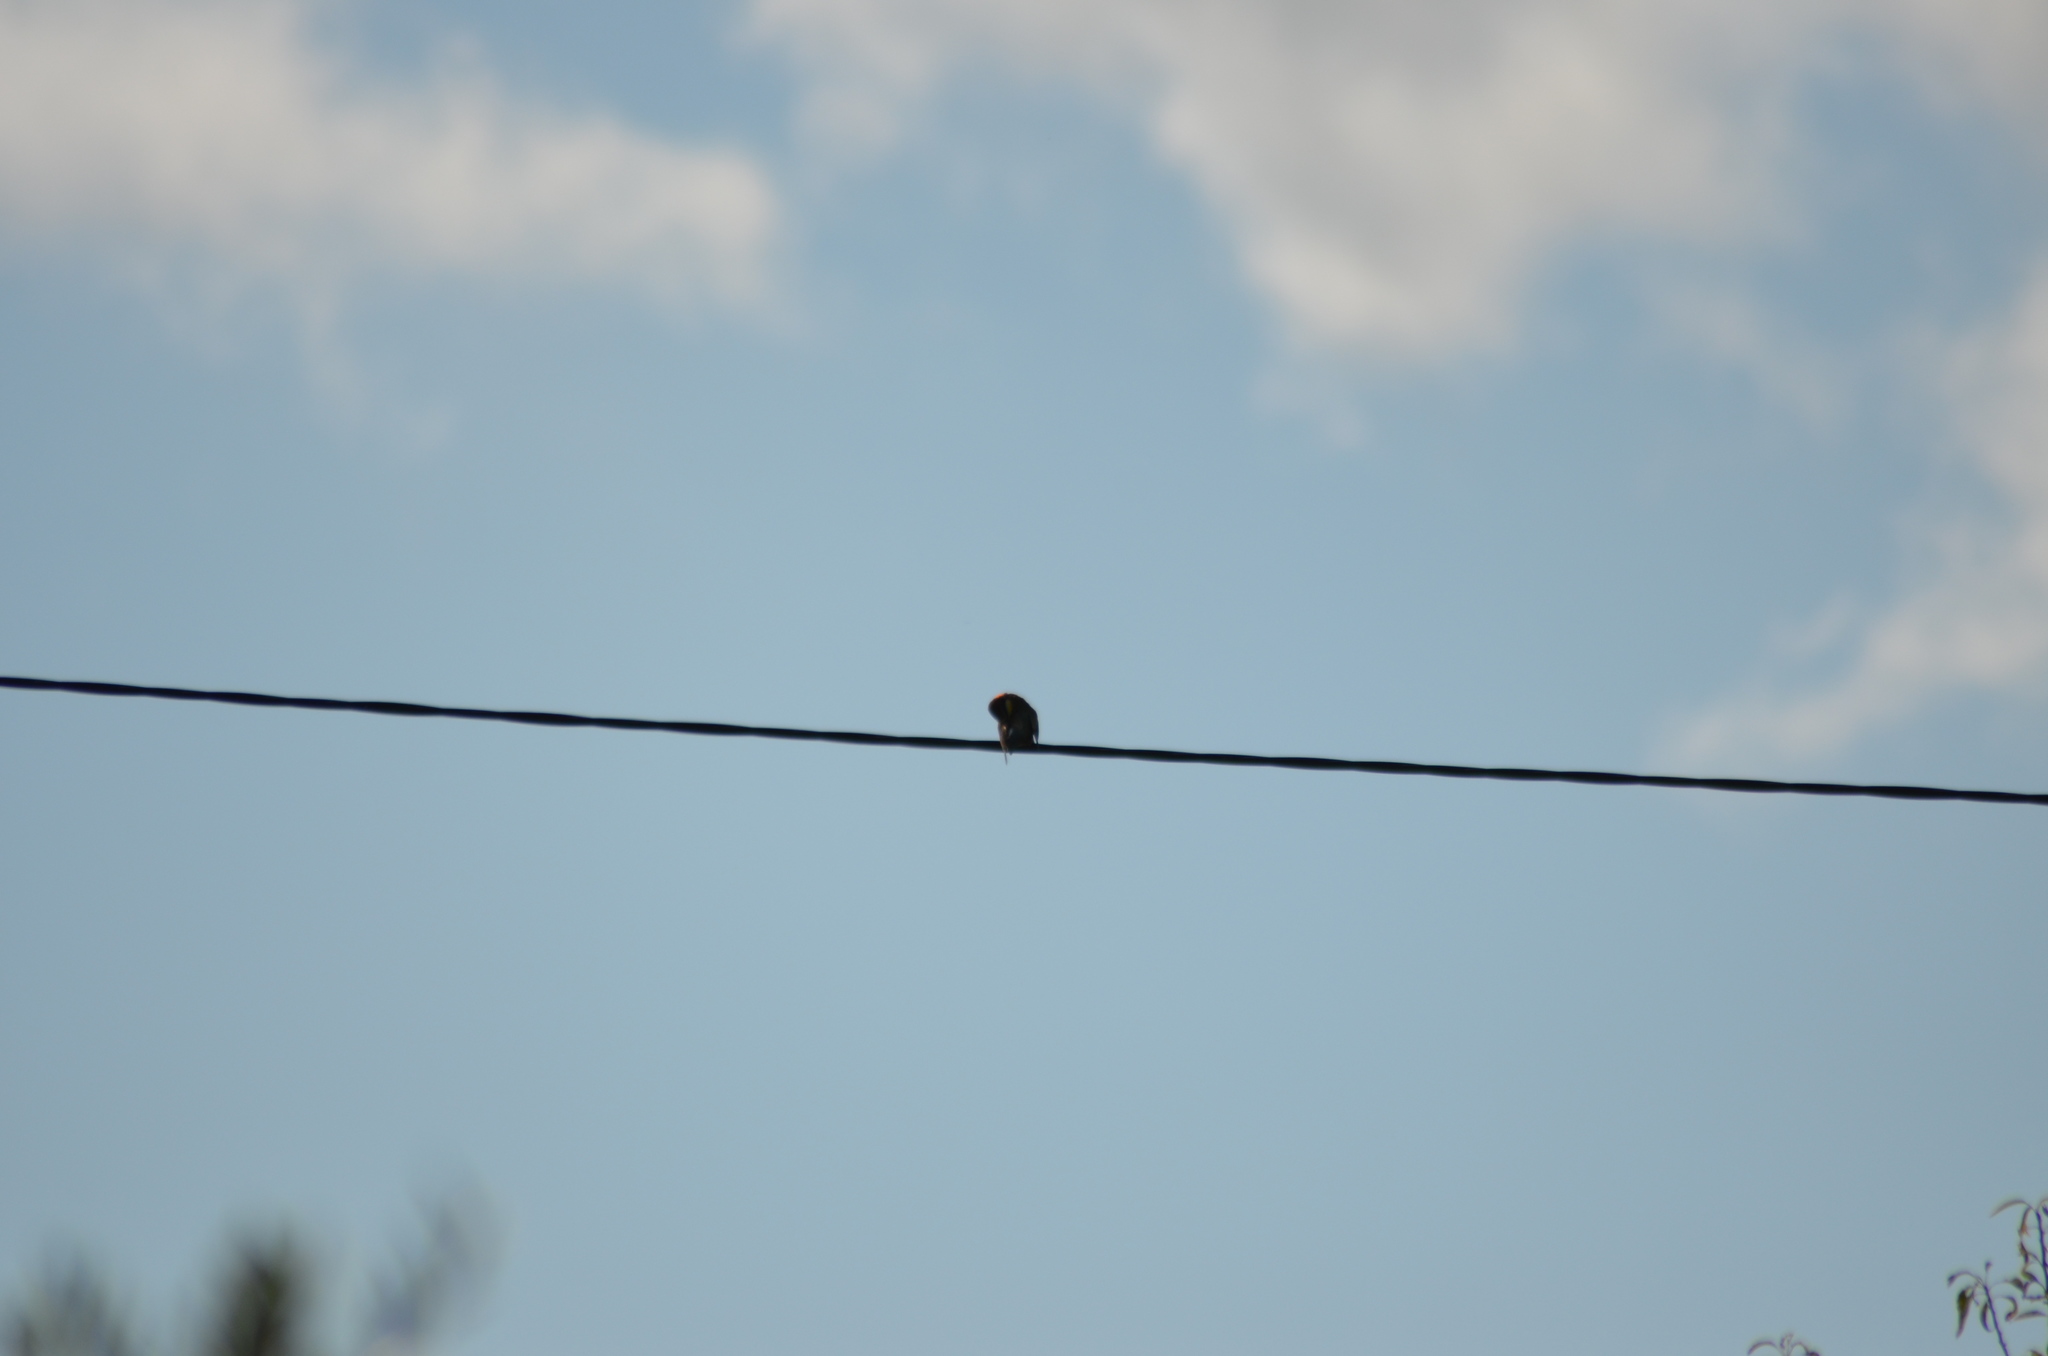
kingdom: Animalia
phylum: Chordata
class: Aves
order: Coraciiformes
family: Meropidae
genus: Merops
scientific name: Merops apiaster
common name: European bee-eater
